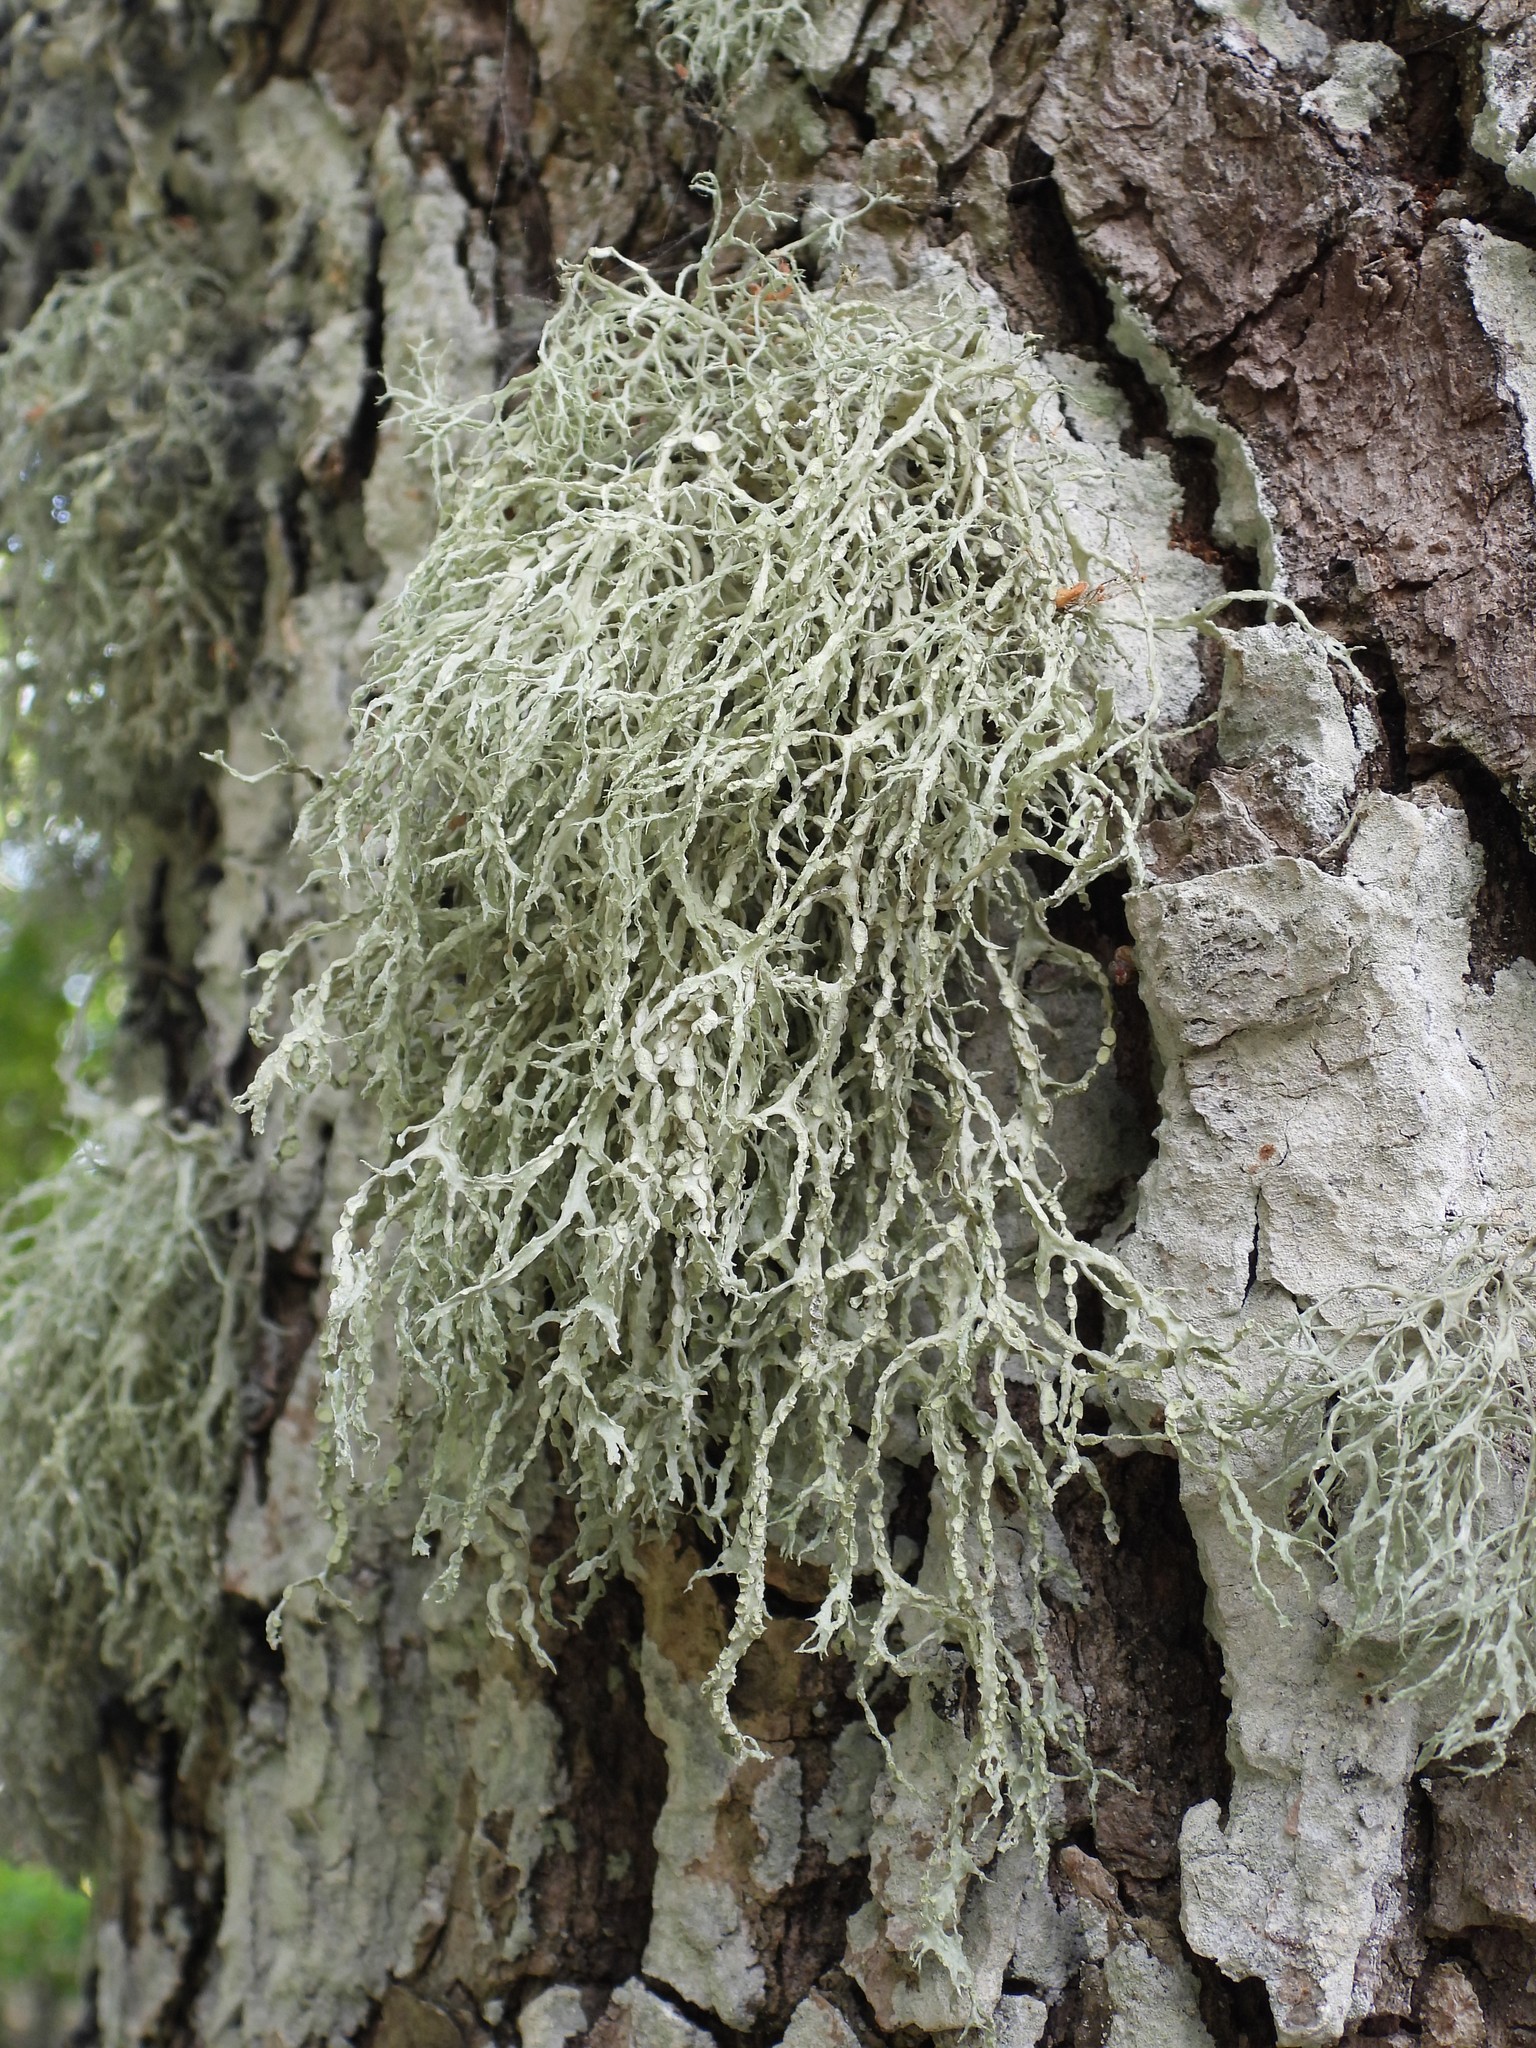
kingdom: Fungi
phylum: Ascomycota
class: Lecanoromycetes
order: Lecanorales
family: Ramalinaceae
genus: Ramalina
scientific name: Ramalina farinacea
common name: Farinose cartilage lichen
